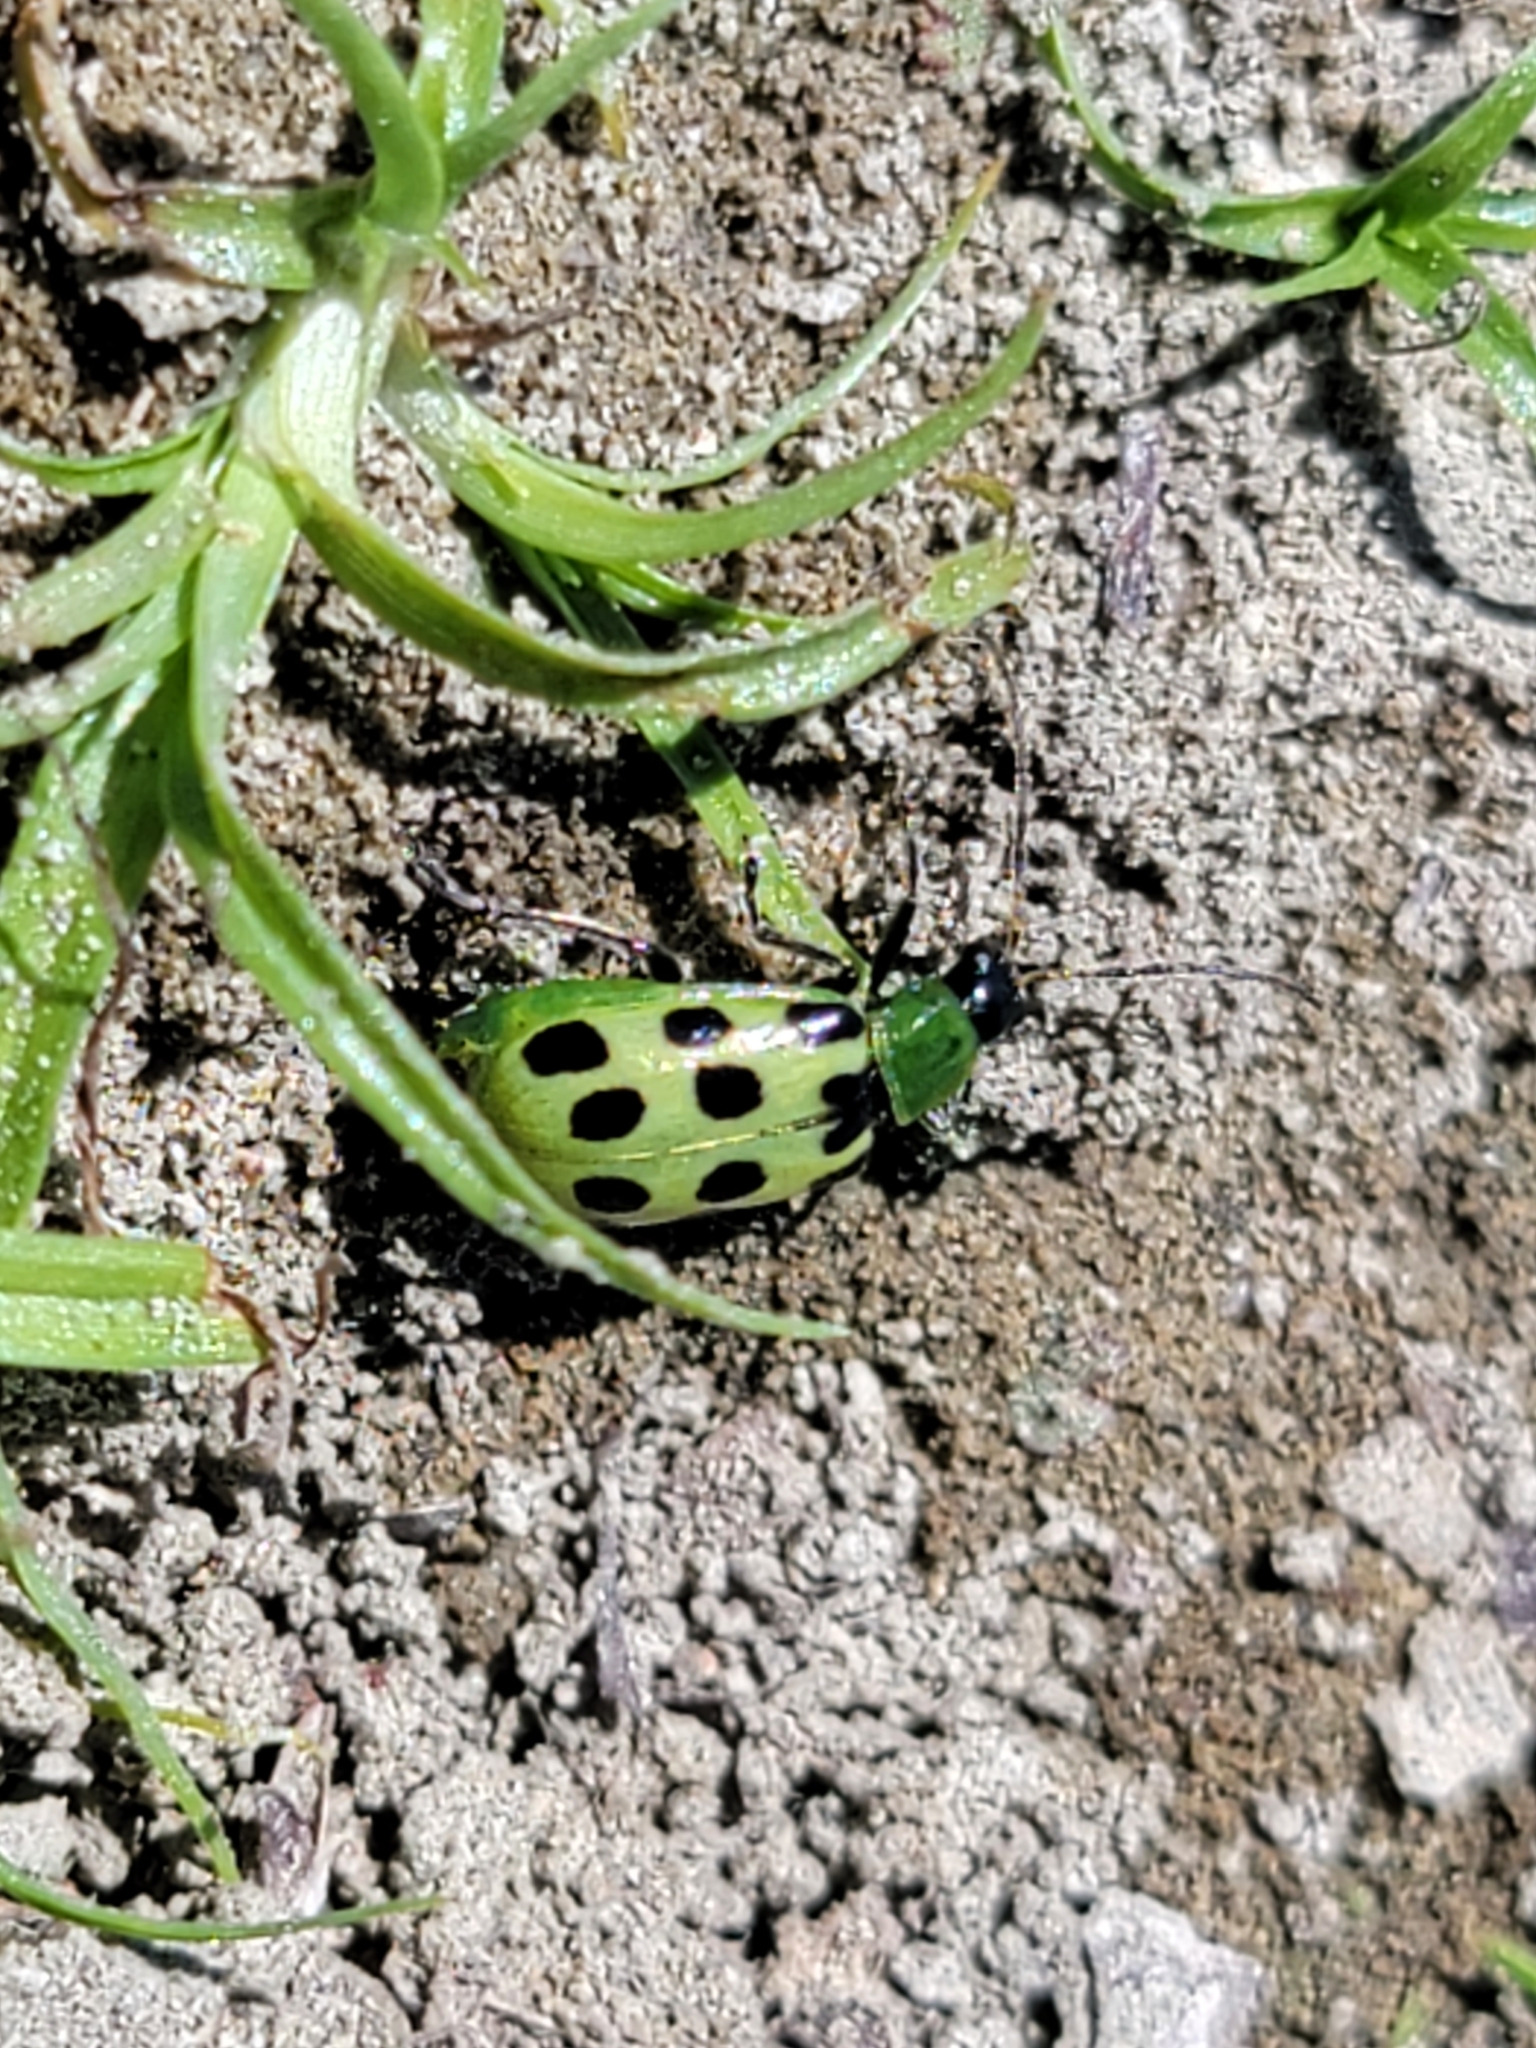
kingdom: Animalia
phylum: Arthropoda
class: Insecta
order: Coleoptera
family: Chrysomelidae
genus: Diabrotica
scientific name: Diabrotica undecimpunctata
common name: Spotted cucumber beetle
